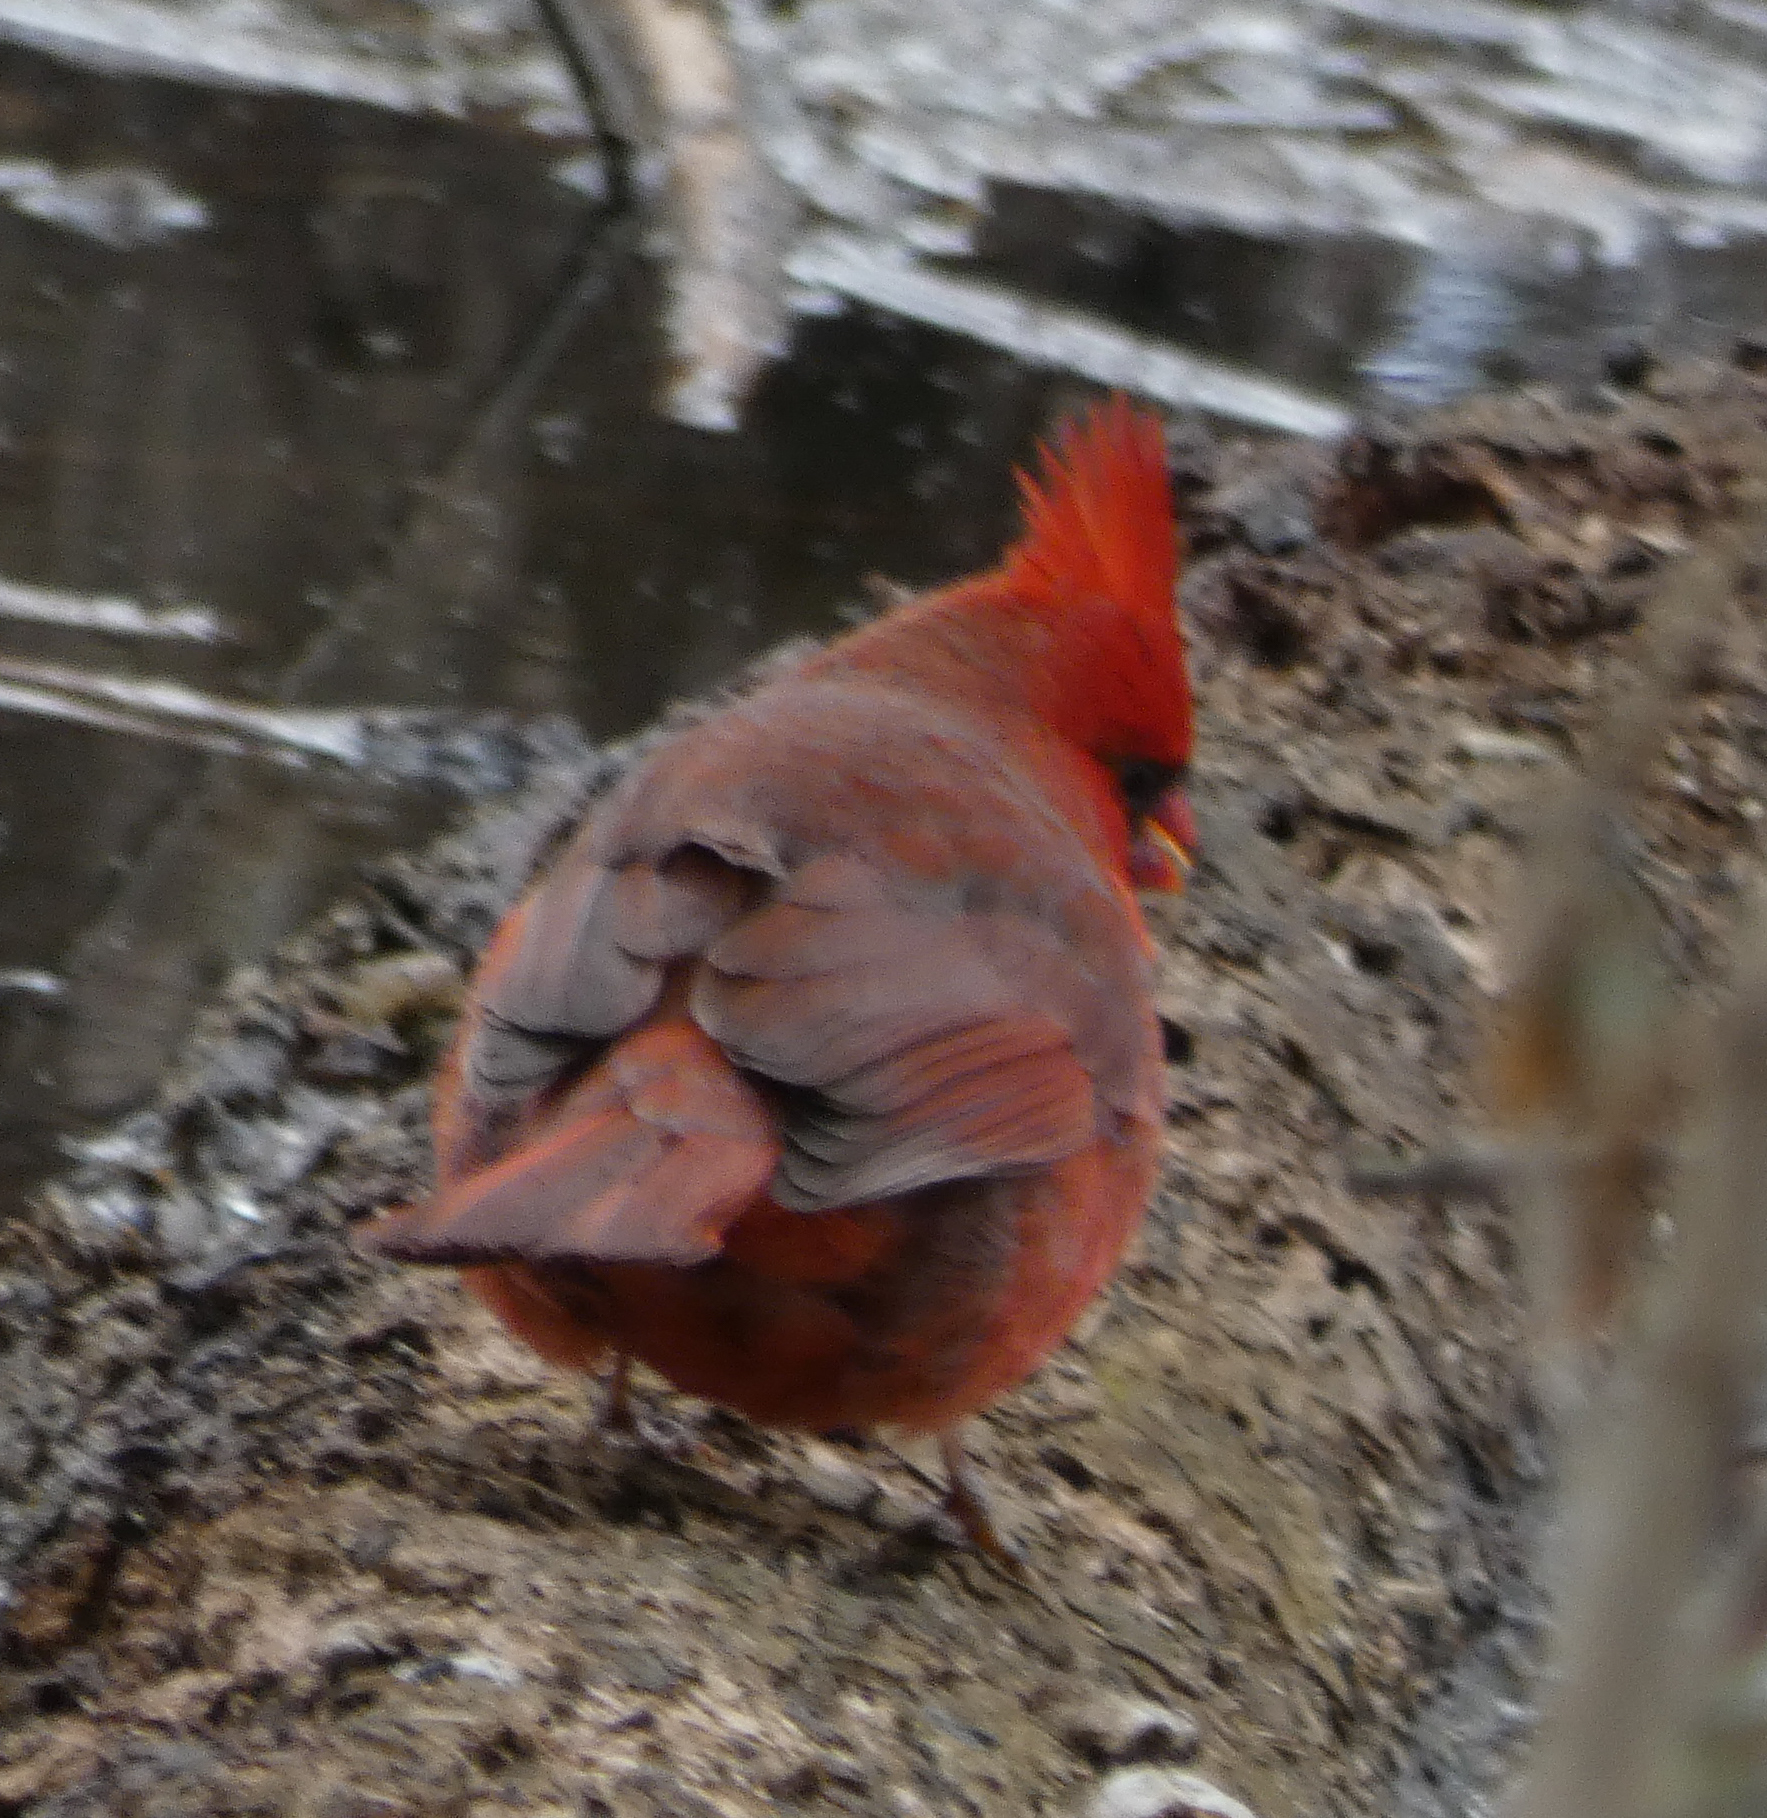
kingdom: Animalia
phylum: Chordata
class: Aves
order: Passeriformes
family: Cardinalidae
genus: Cardinalis
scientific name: Cardinalis cardinalis
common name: Northern cardinal
